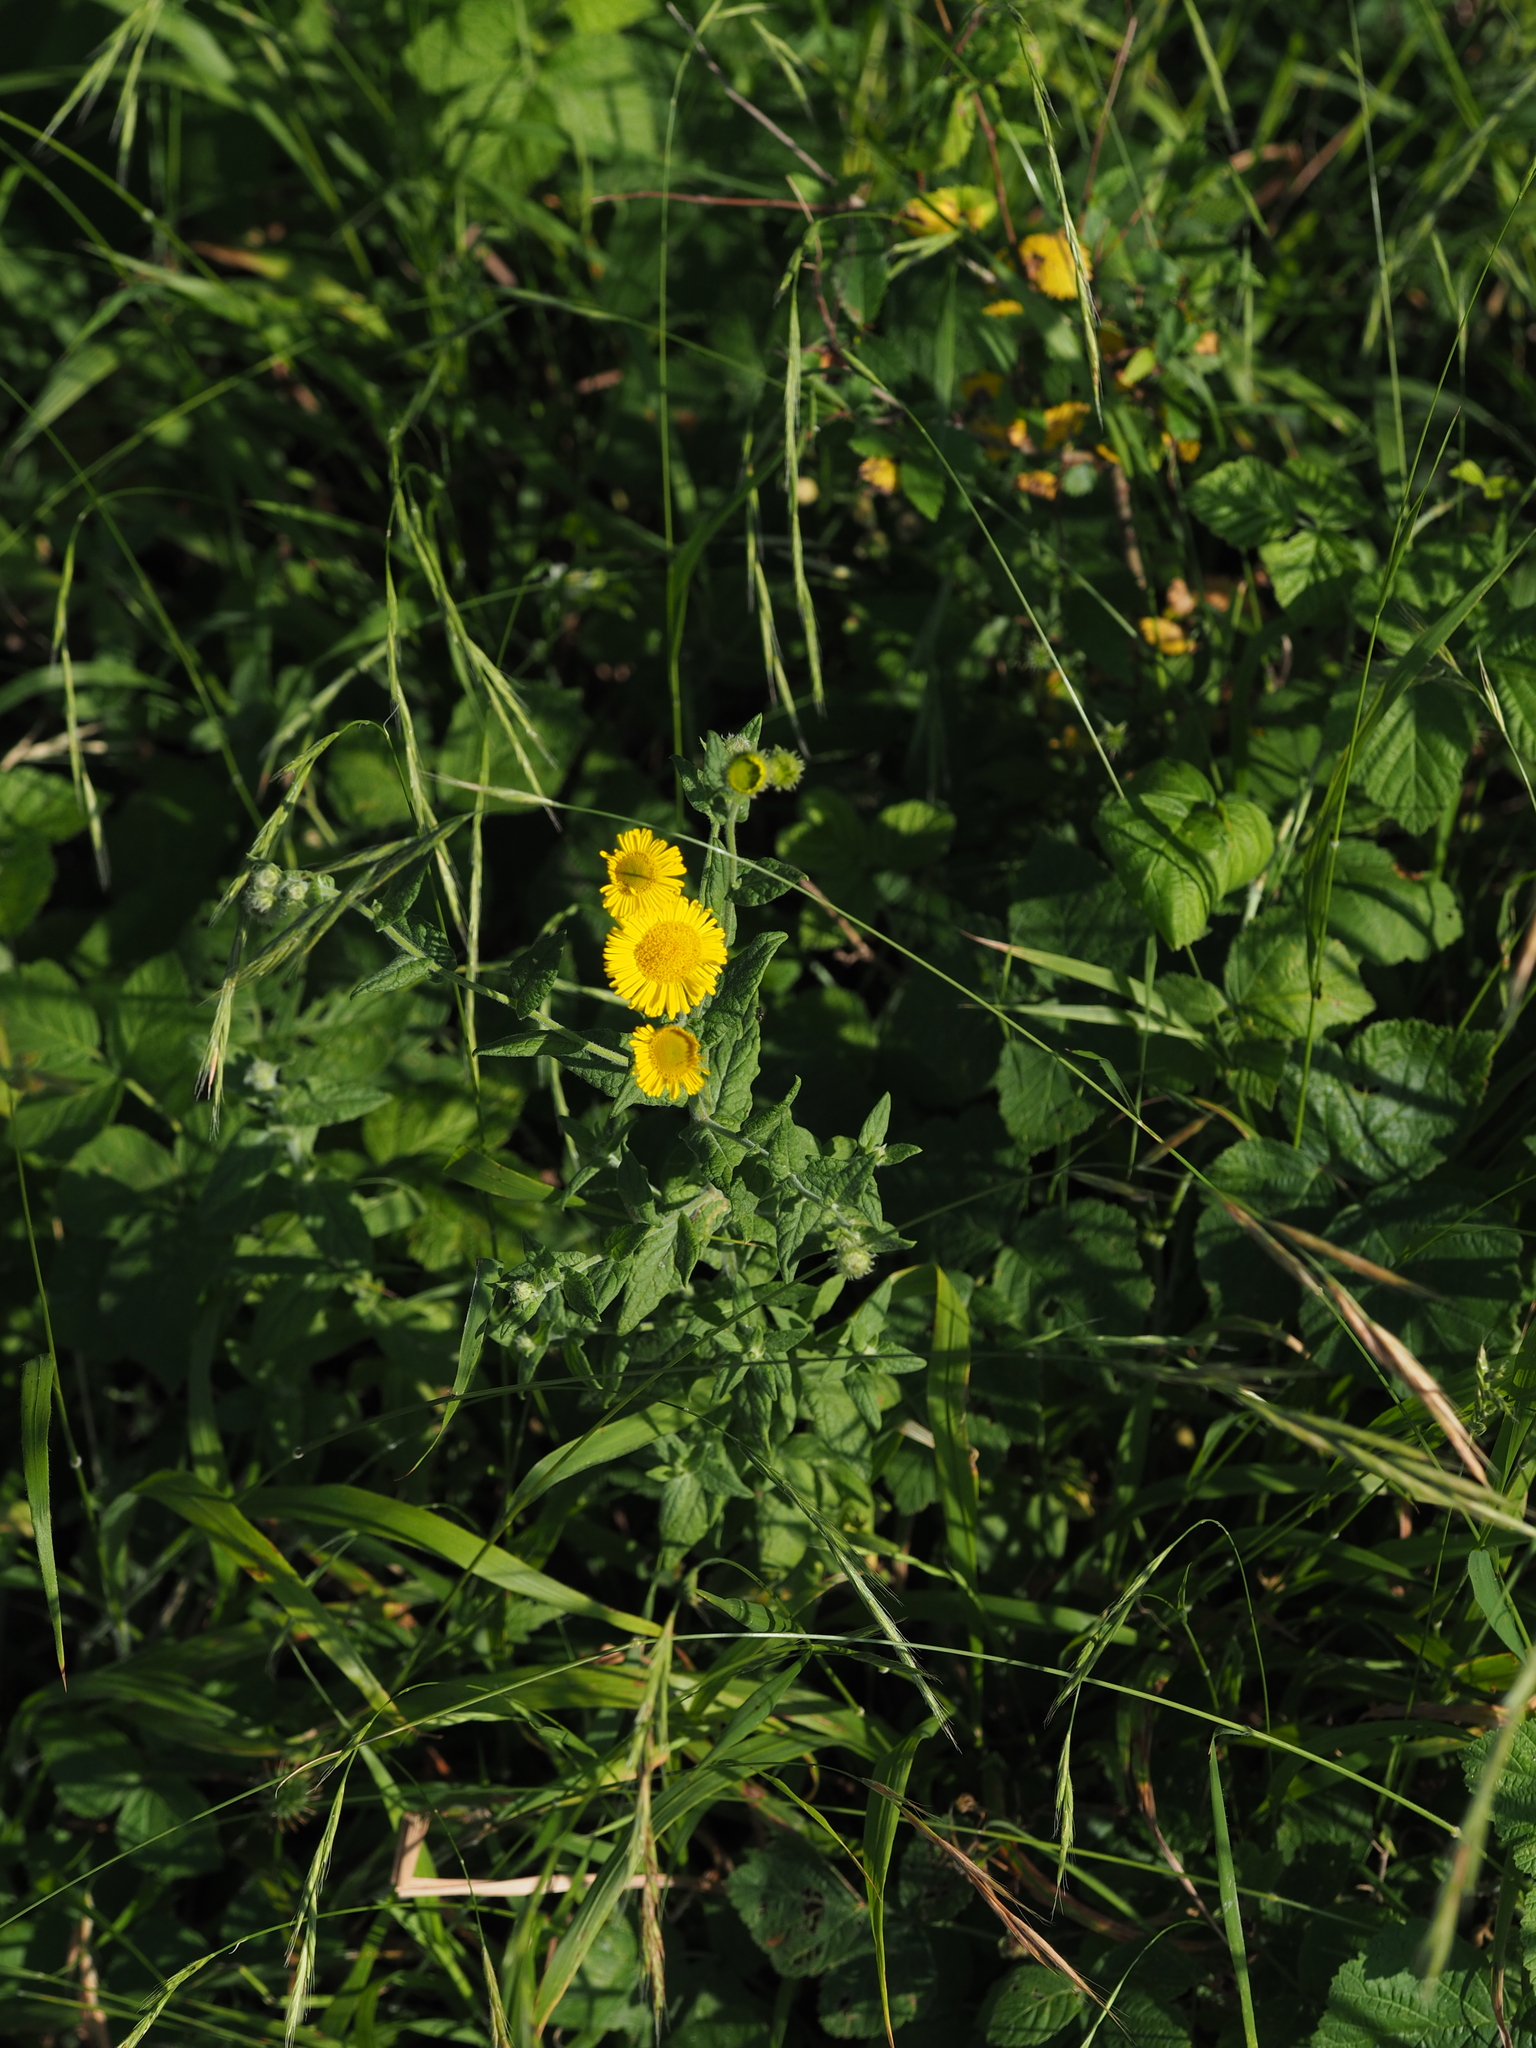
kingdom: Plantae
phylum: Tracheophyta
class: Magnoliopsida
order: Asterales
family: Asteraceae
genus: Pulicaria
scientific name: Pulicaria dysenterica
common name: Common fleabane
